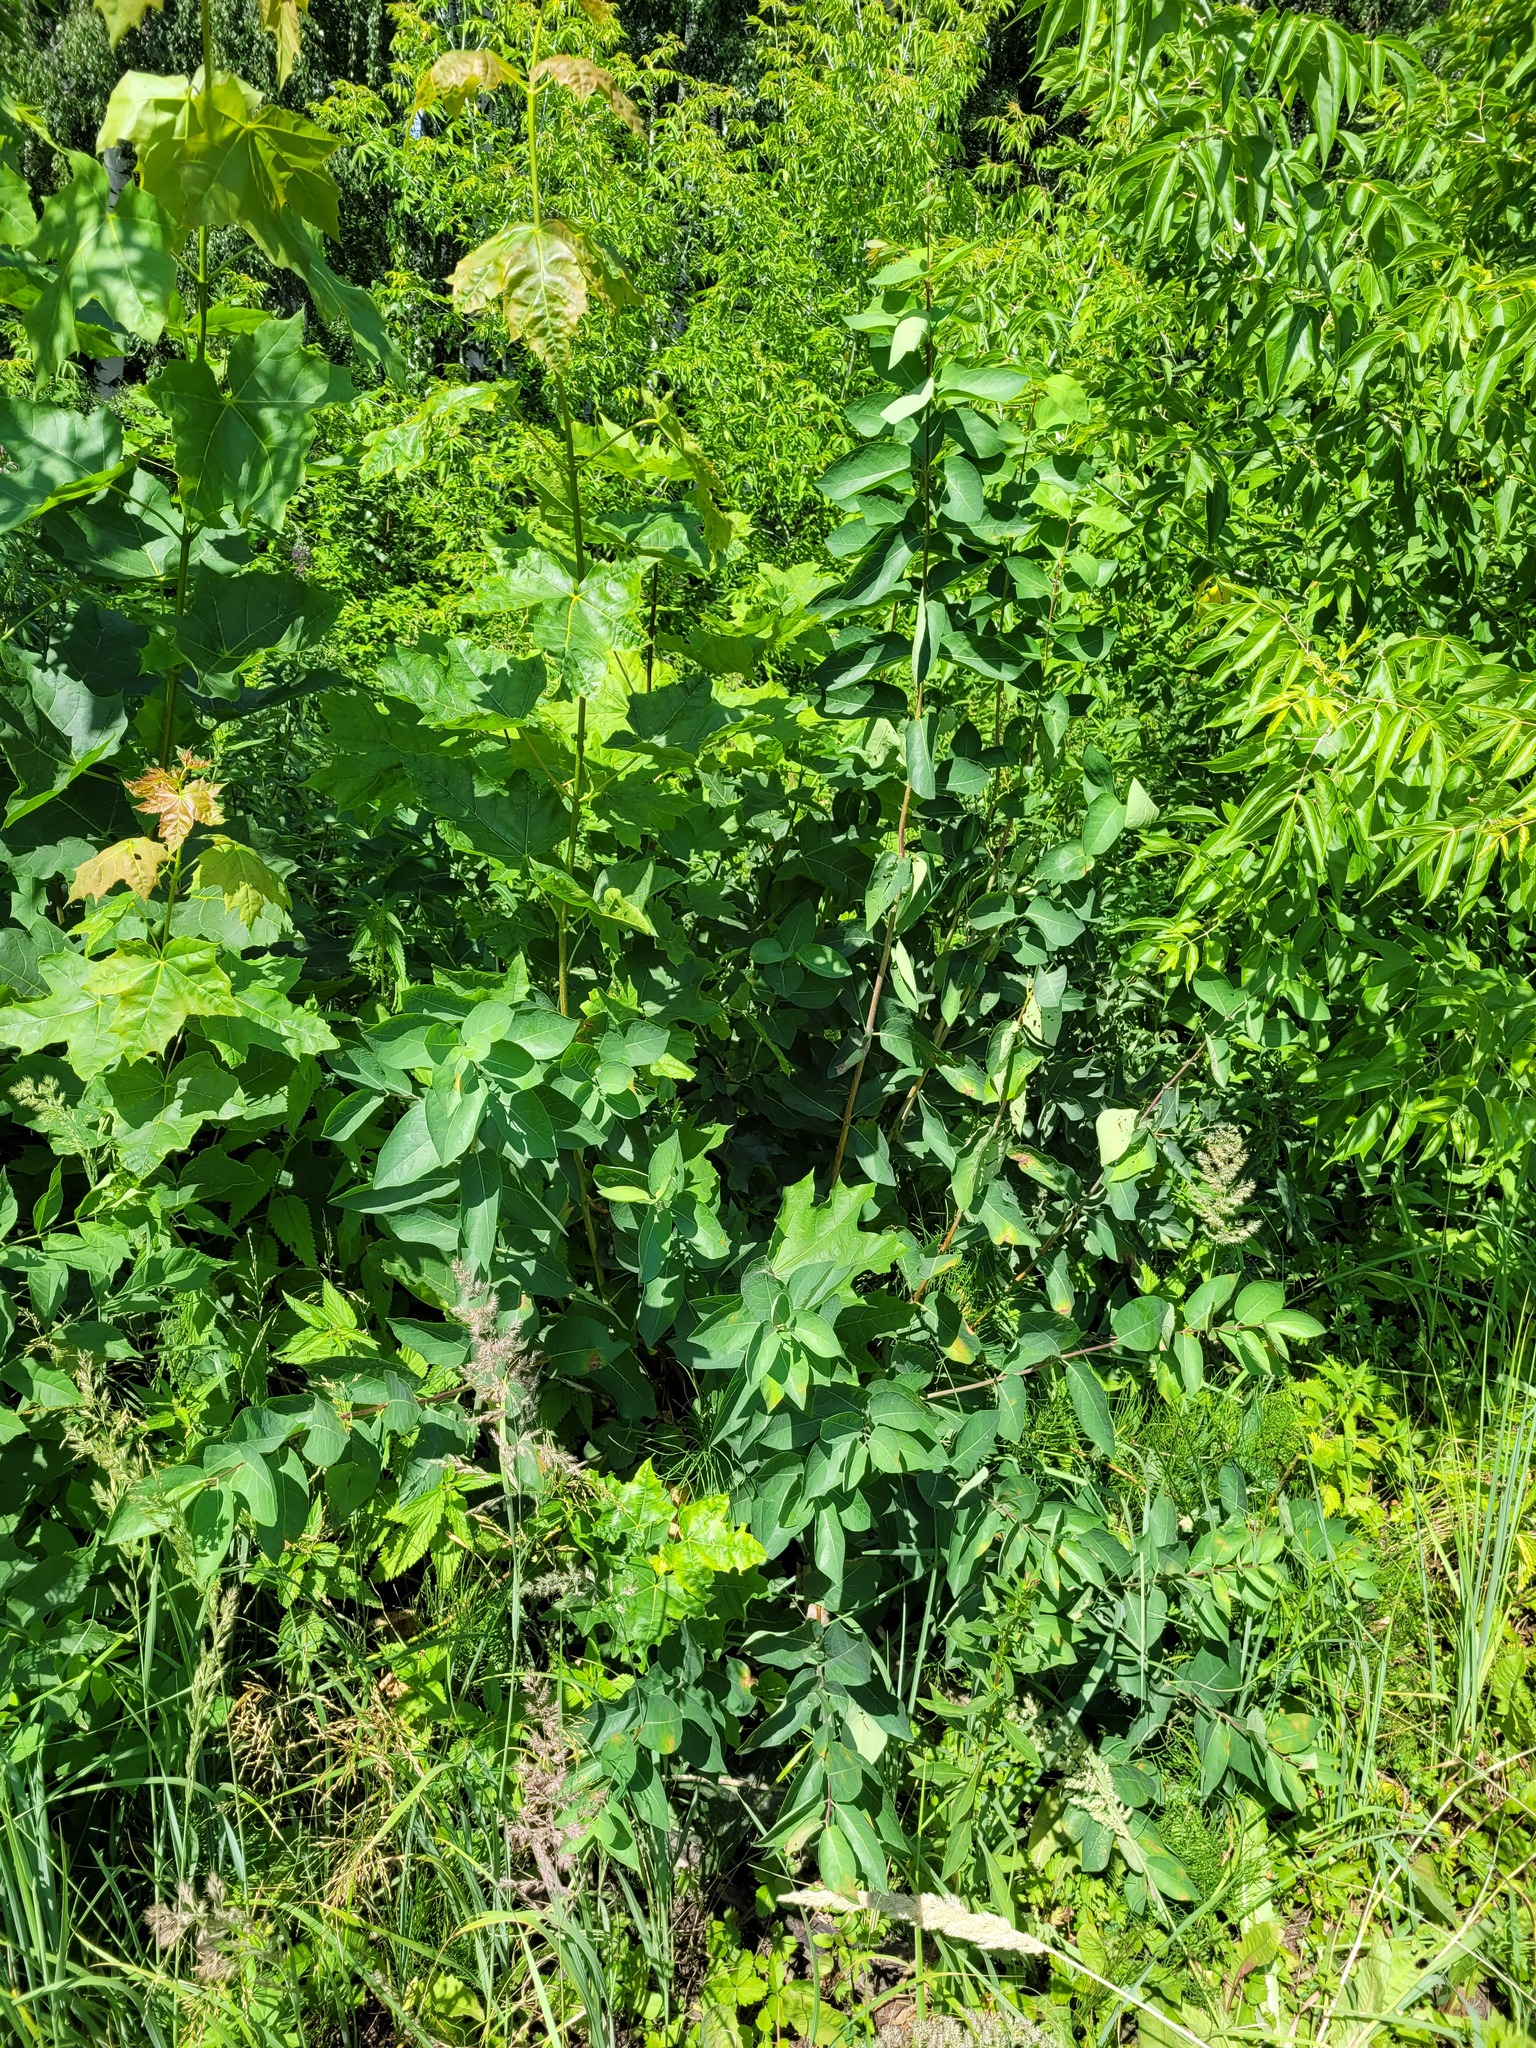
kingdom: Plantae
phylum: Tracheophyta
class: Magnoliopsida
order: Dipsacales
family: Caprifoliaceae
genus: Lonicera
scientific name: Lonicera tatarica
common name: Tatarian honeysuckle
